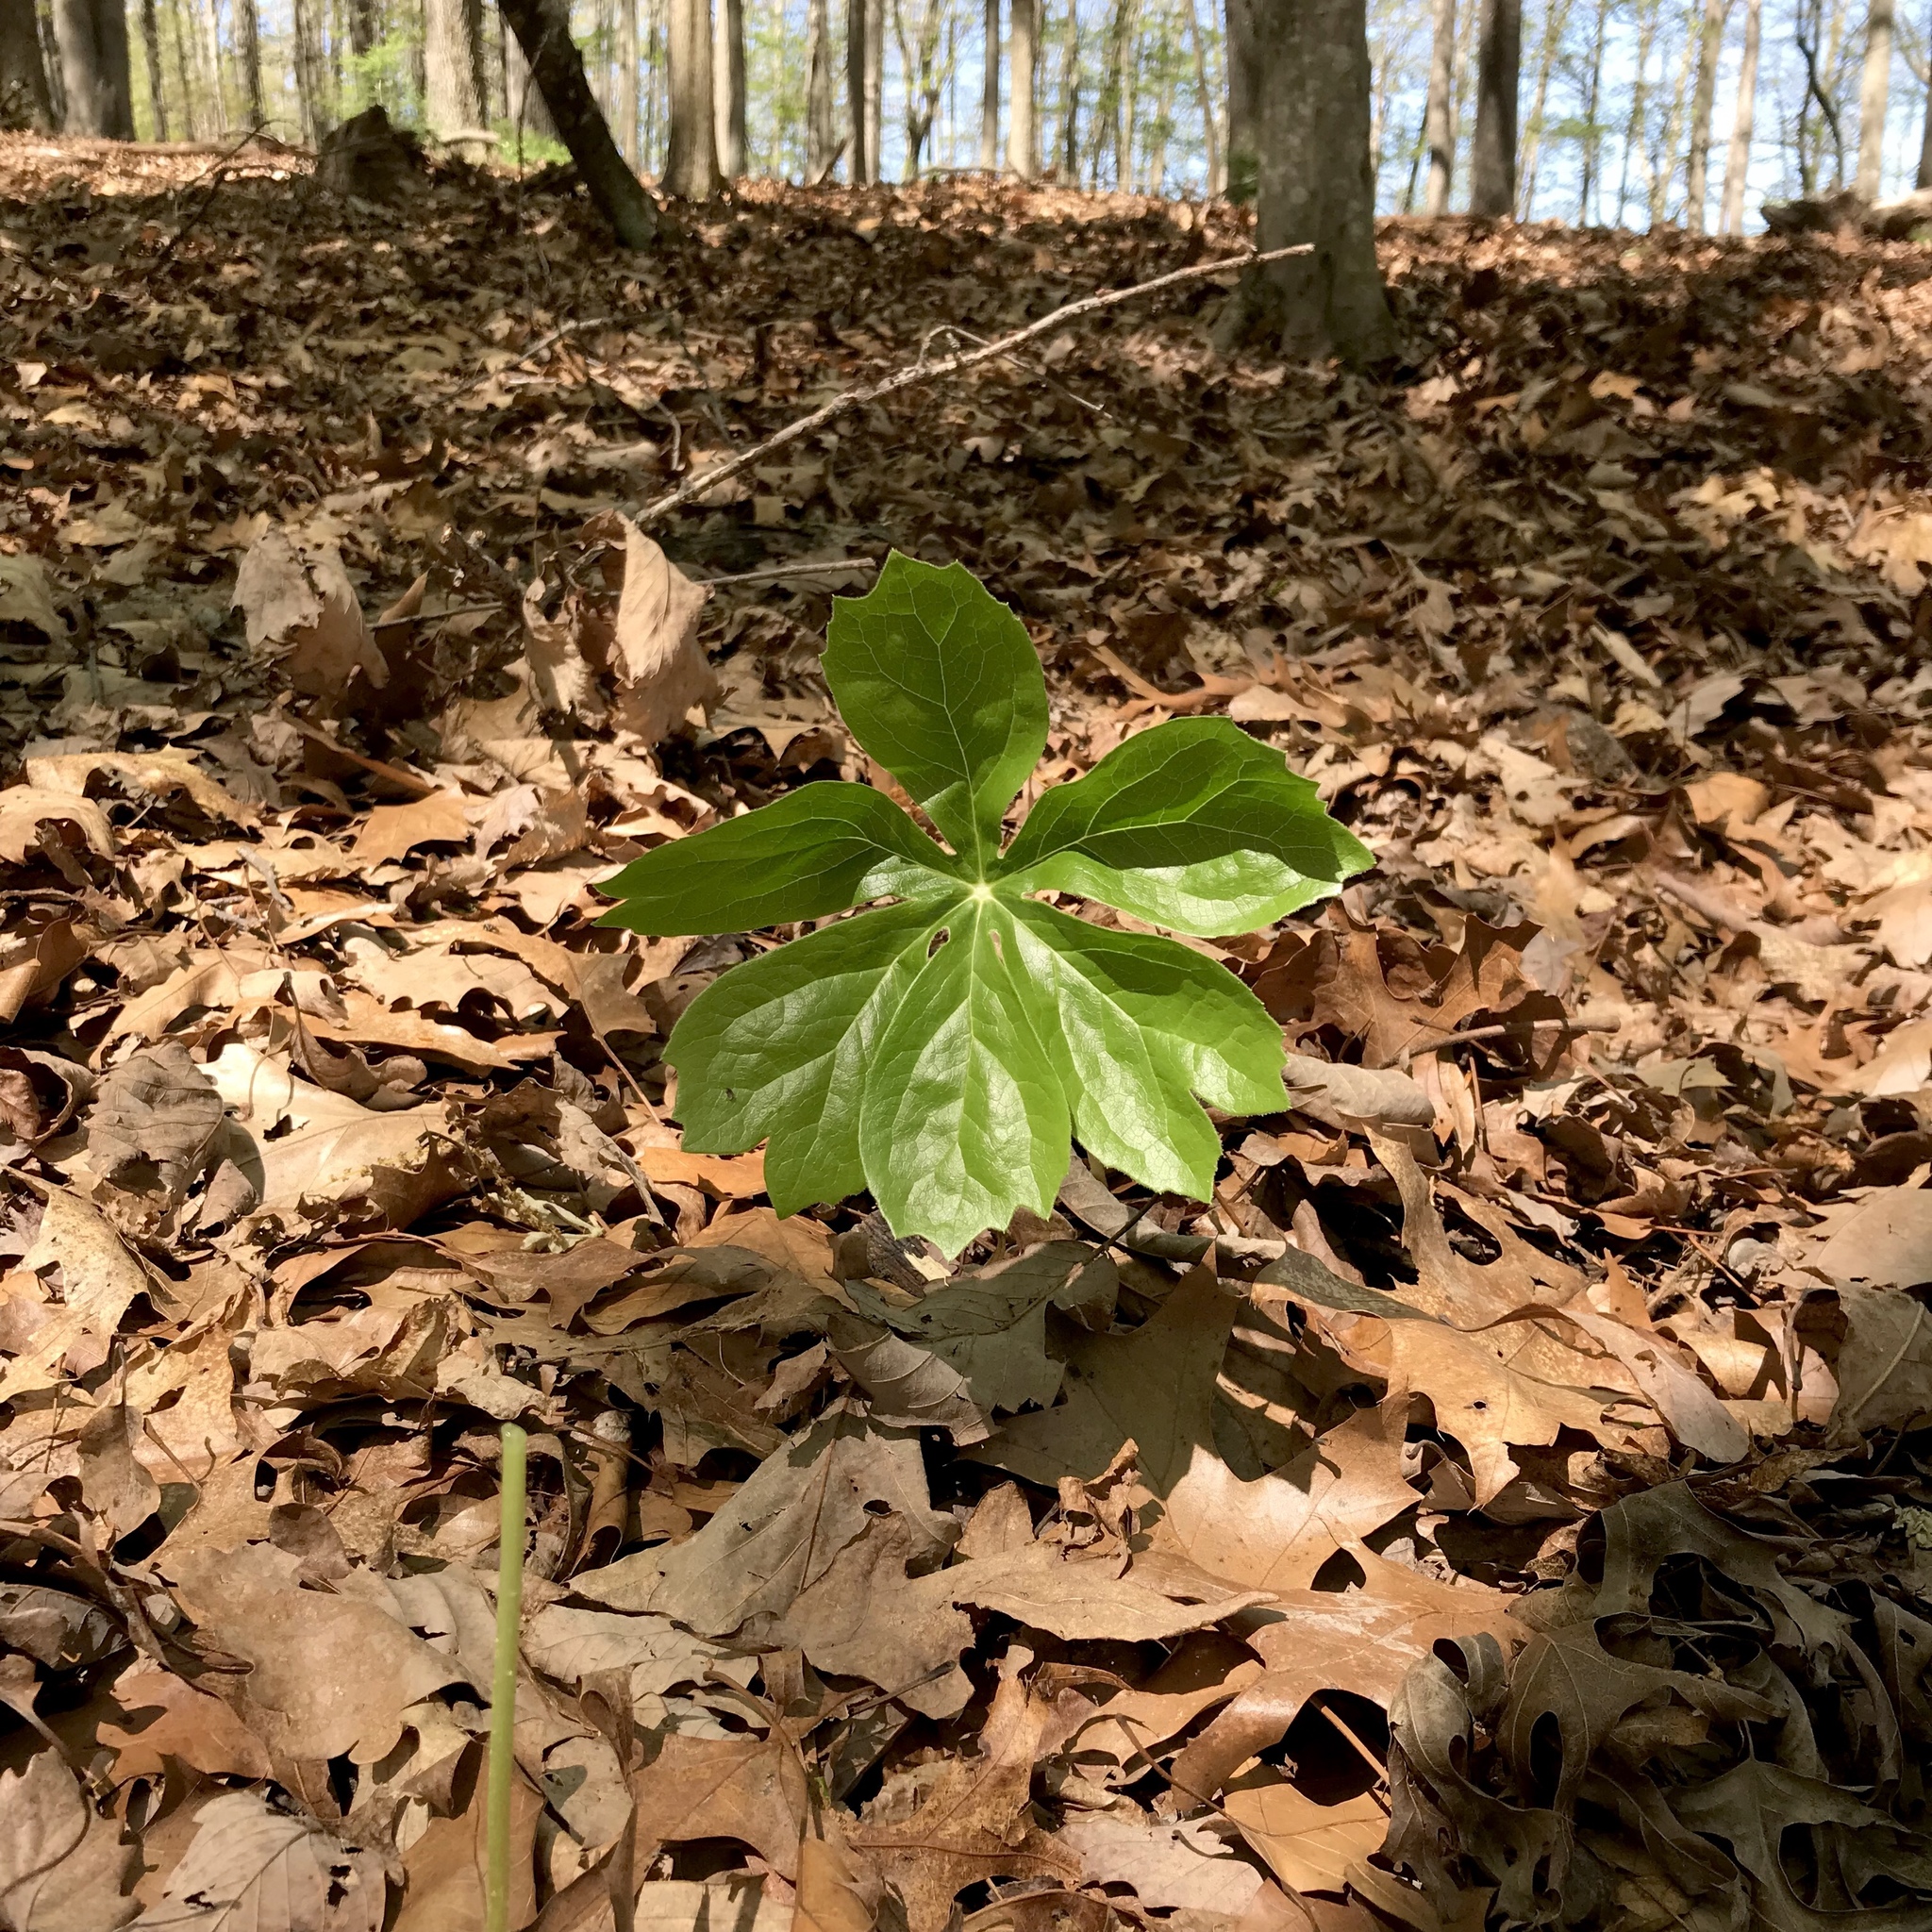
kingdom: Plantae
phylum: Tracheophyta
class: Magnoliopsida
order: Ranunculales
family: Berberidaceae
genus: Podophyllum
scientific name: Podophyllum peltatum
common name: Wild mandrake
